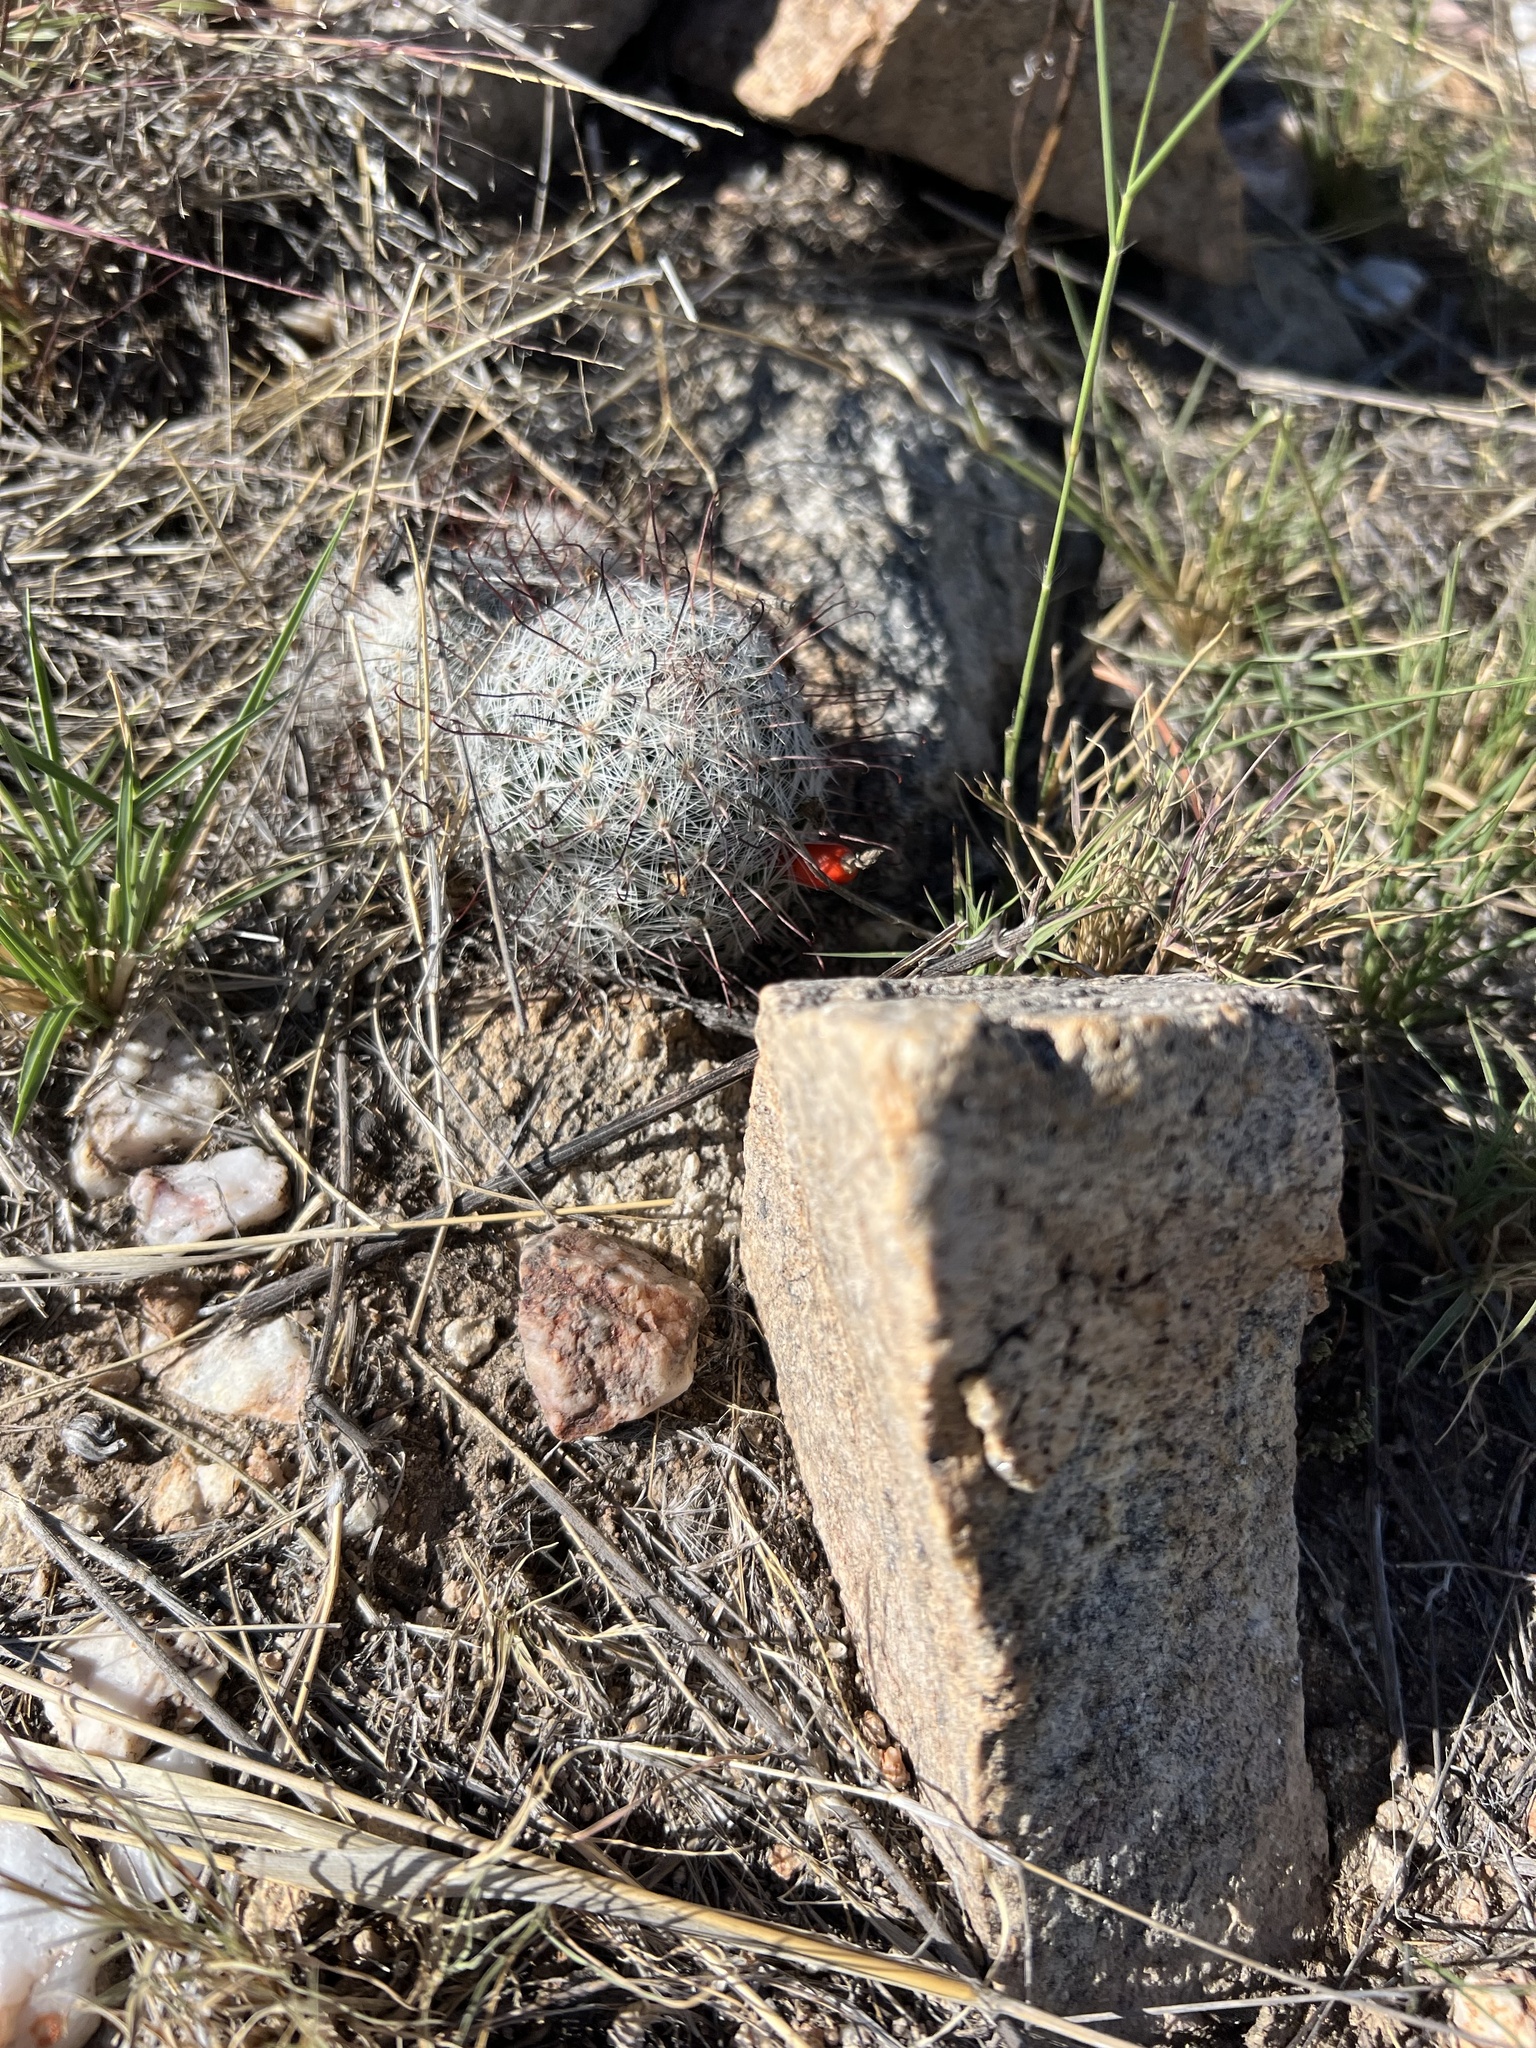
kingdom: Plantae
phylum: Tracheophyta
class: Magnoliopsida
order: Caryophyllales
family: Cactaceae
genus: Cochemiea
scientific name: Cochemiea grahamii
